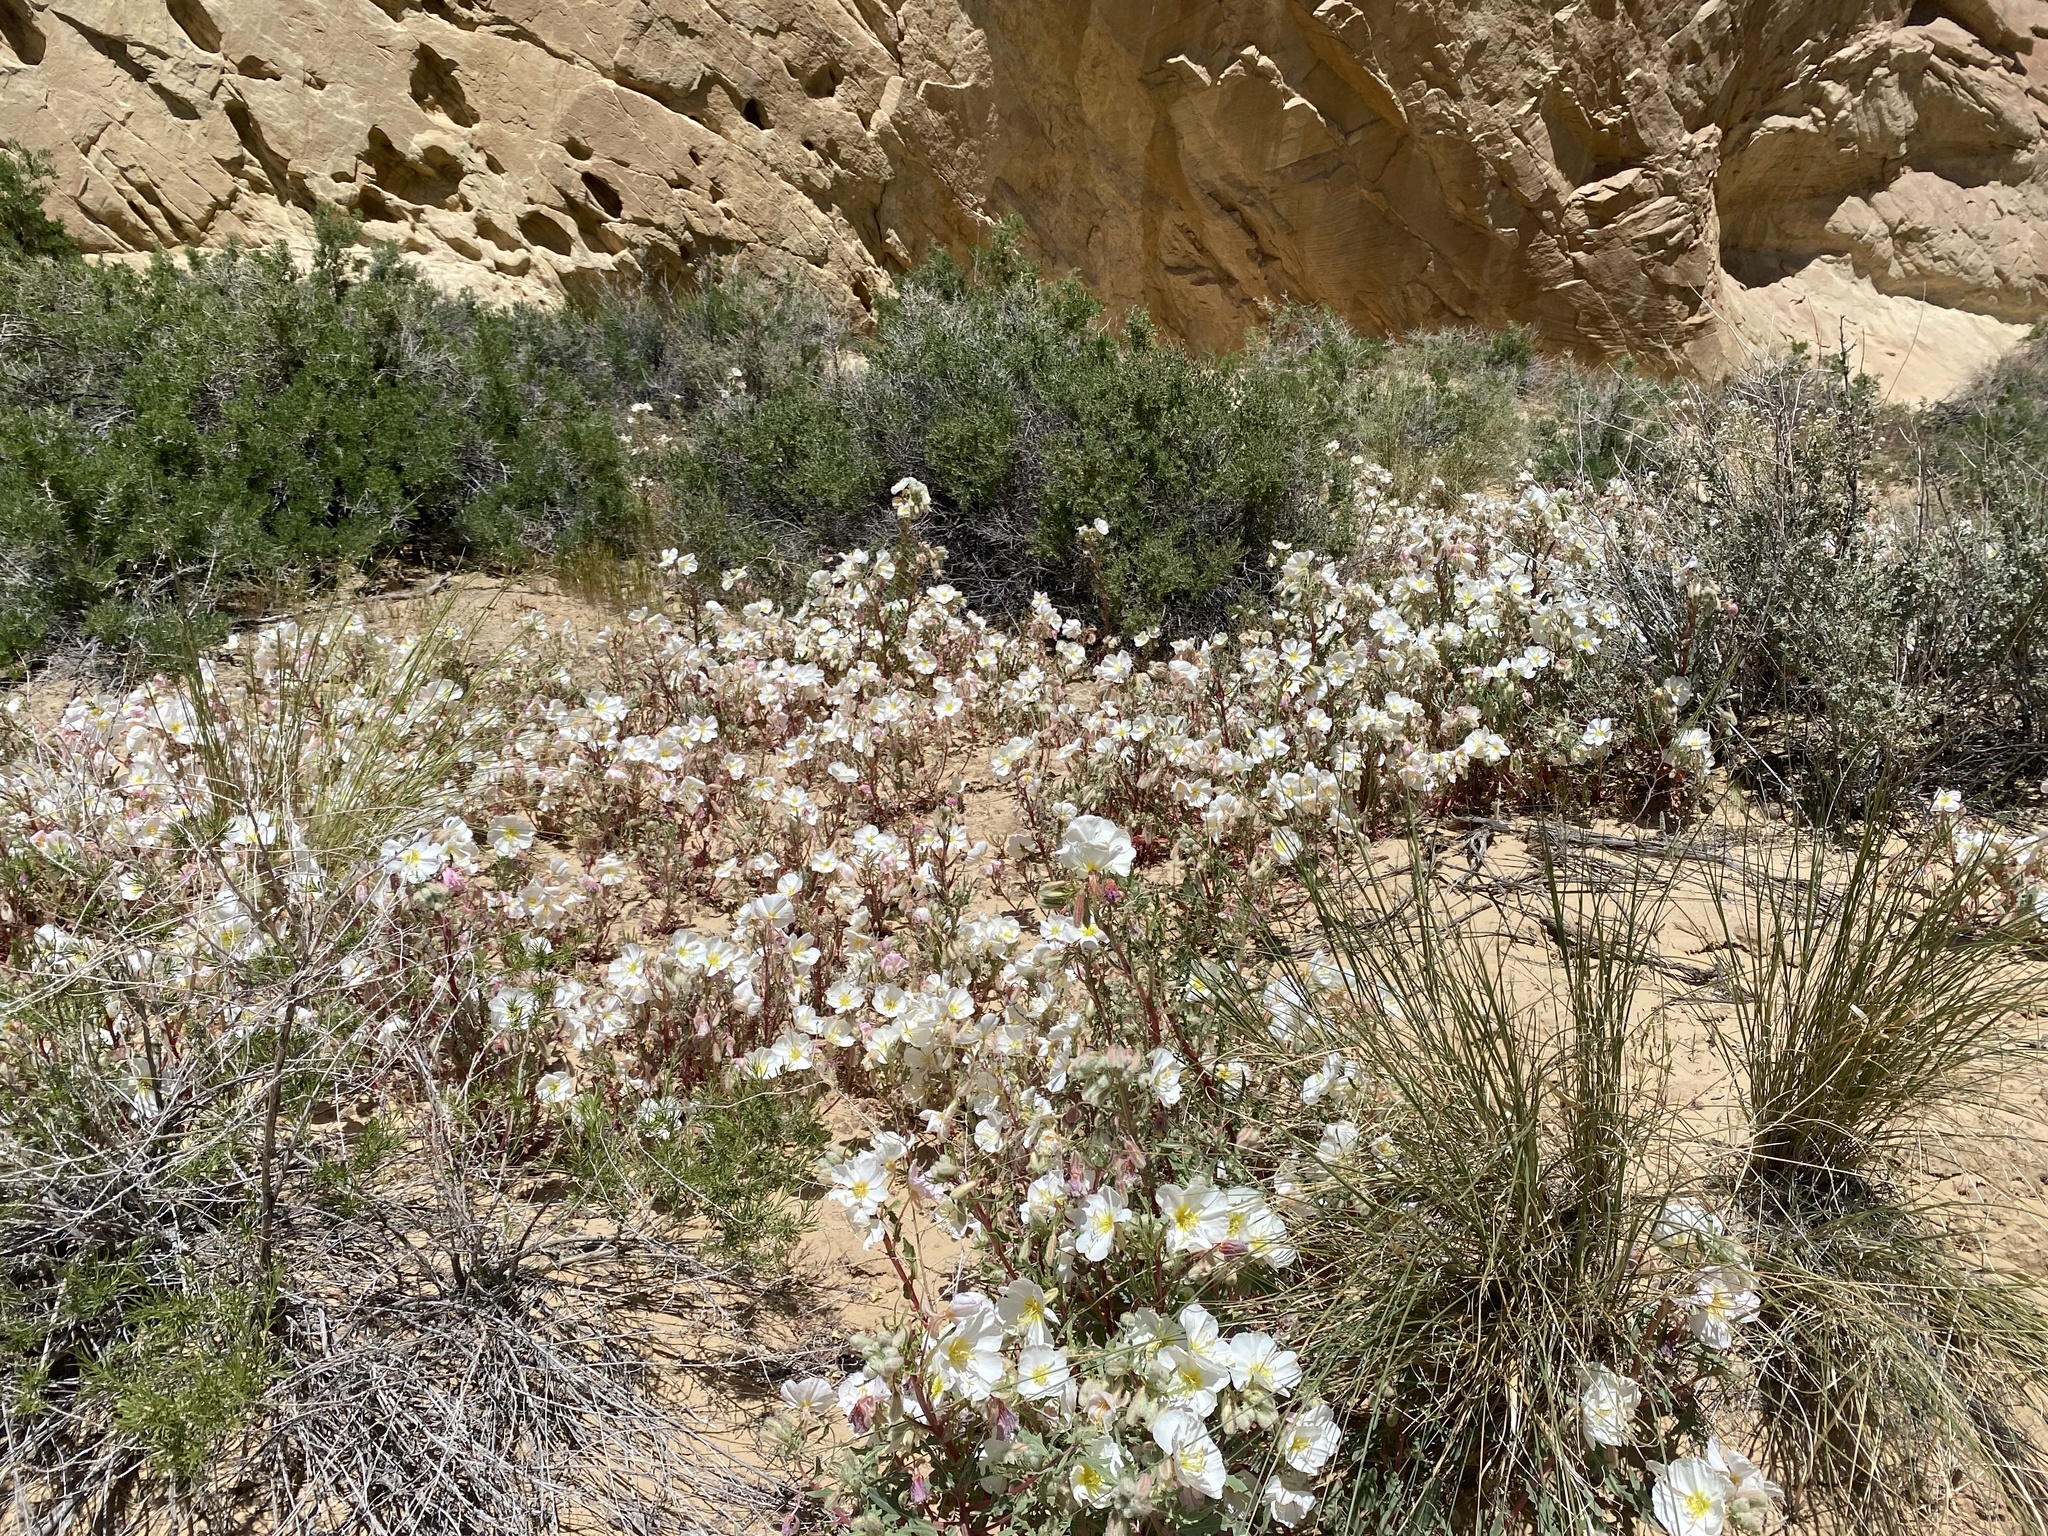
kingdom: Plantae
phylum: Tracheophyta
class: Magnoliopsida
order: Myrtales
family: Onagraceae
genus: Oenothera
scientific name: Oenothera pallida
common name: Pale evening-primrose
